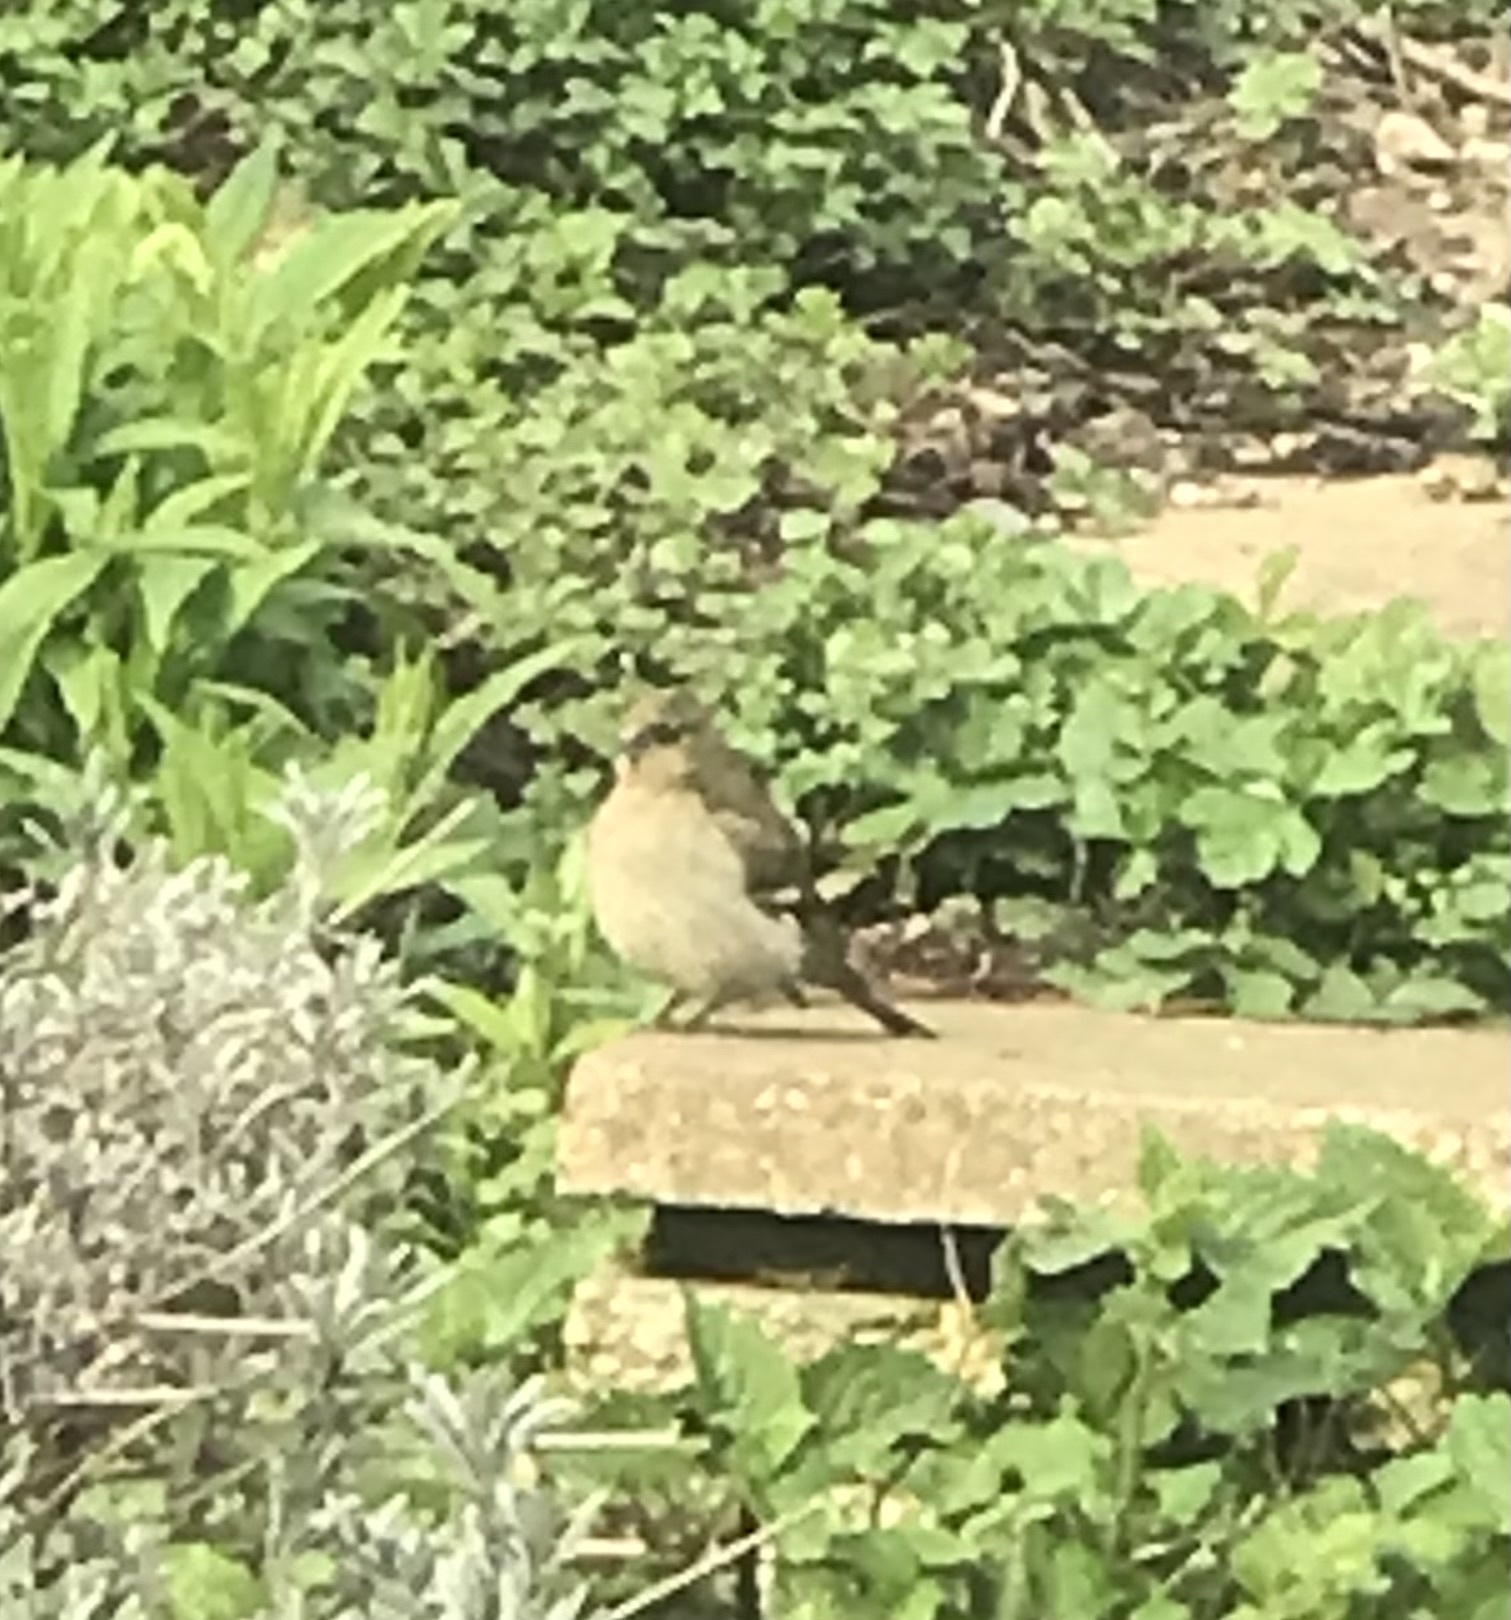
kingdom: Animalia
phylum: Chordata
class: Aves
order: Passeriformes
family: Fringillidae
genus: Fringilla
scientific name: Fringilla coelebs
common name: Common chaffinch
